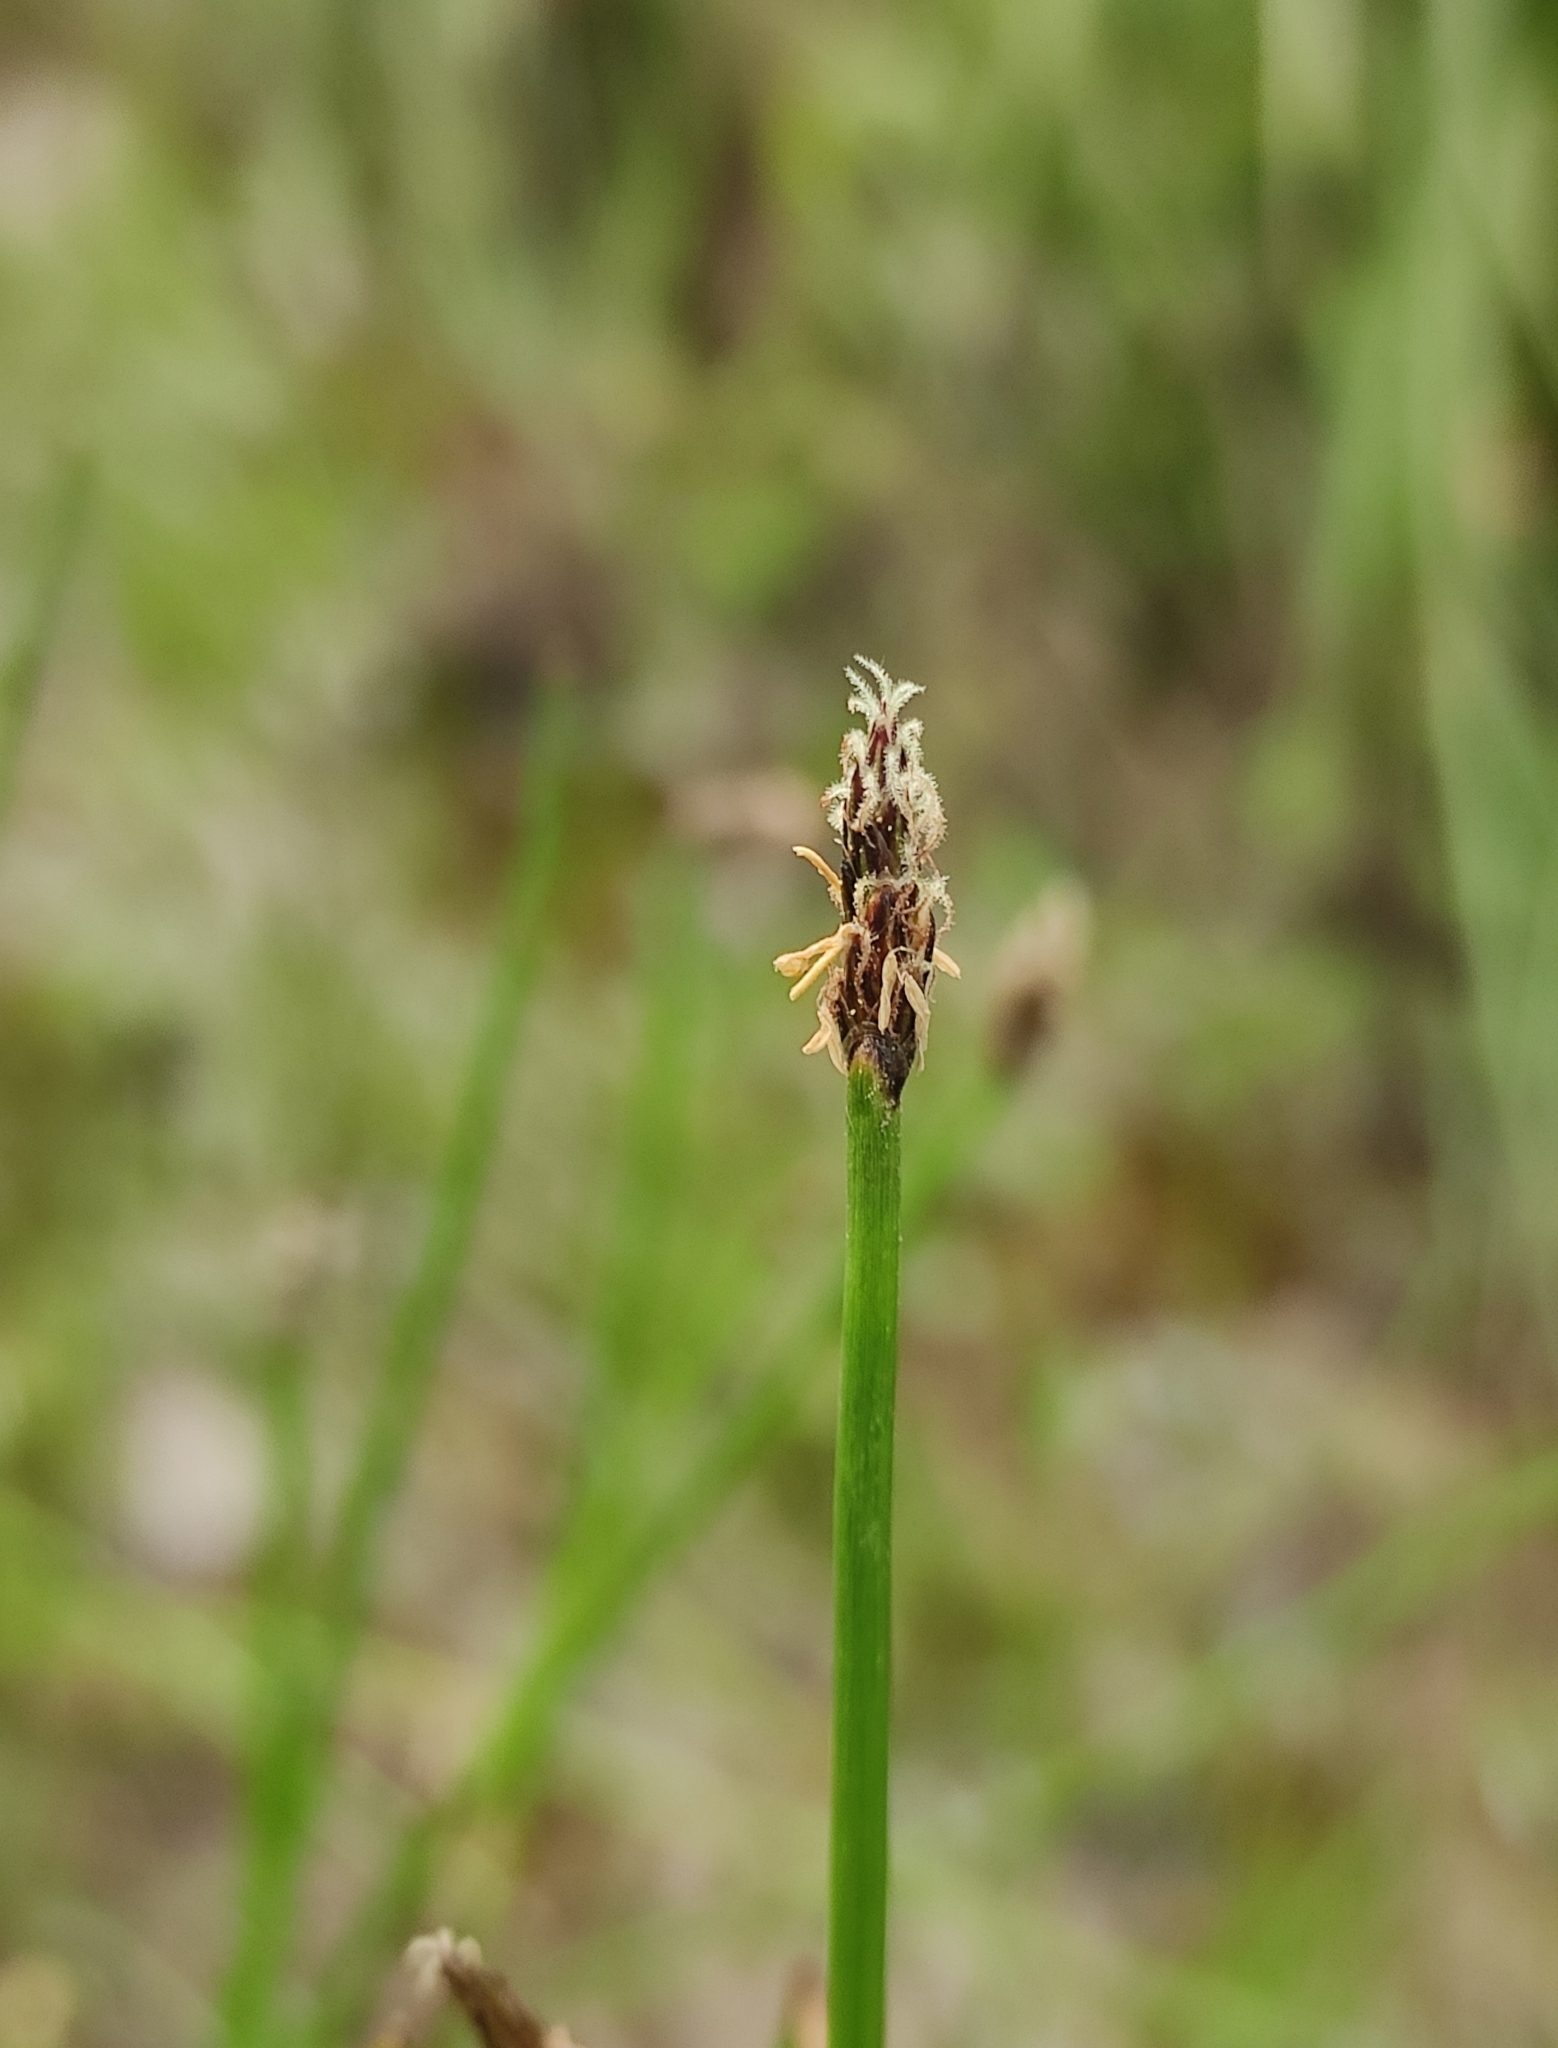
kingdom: Plantae
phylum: Tracheophyta
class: Liliopsida
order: Poales
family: Cyperaceae
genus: Eleocharis
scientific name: Eleocharis palustris
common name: Common spike-rush
